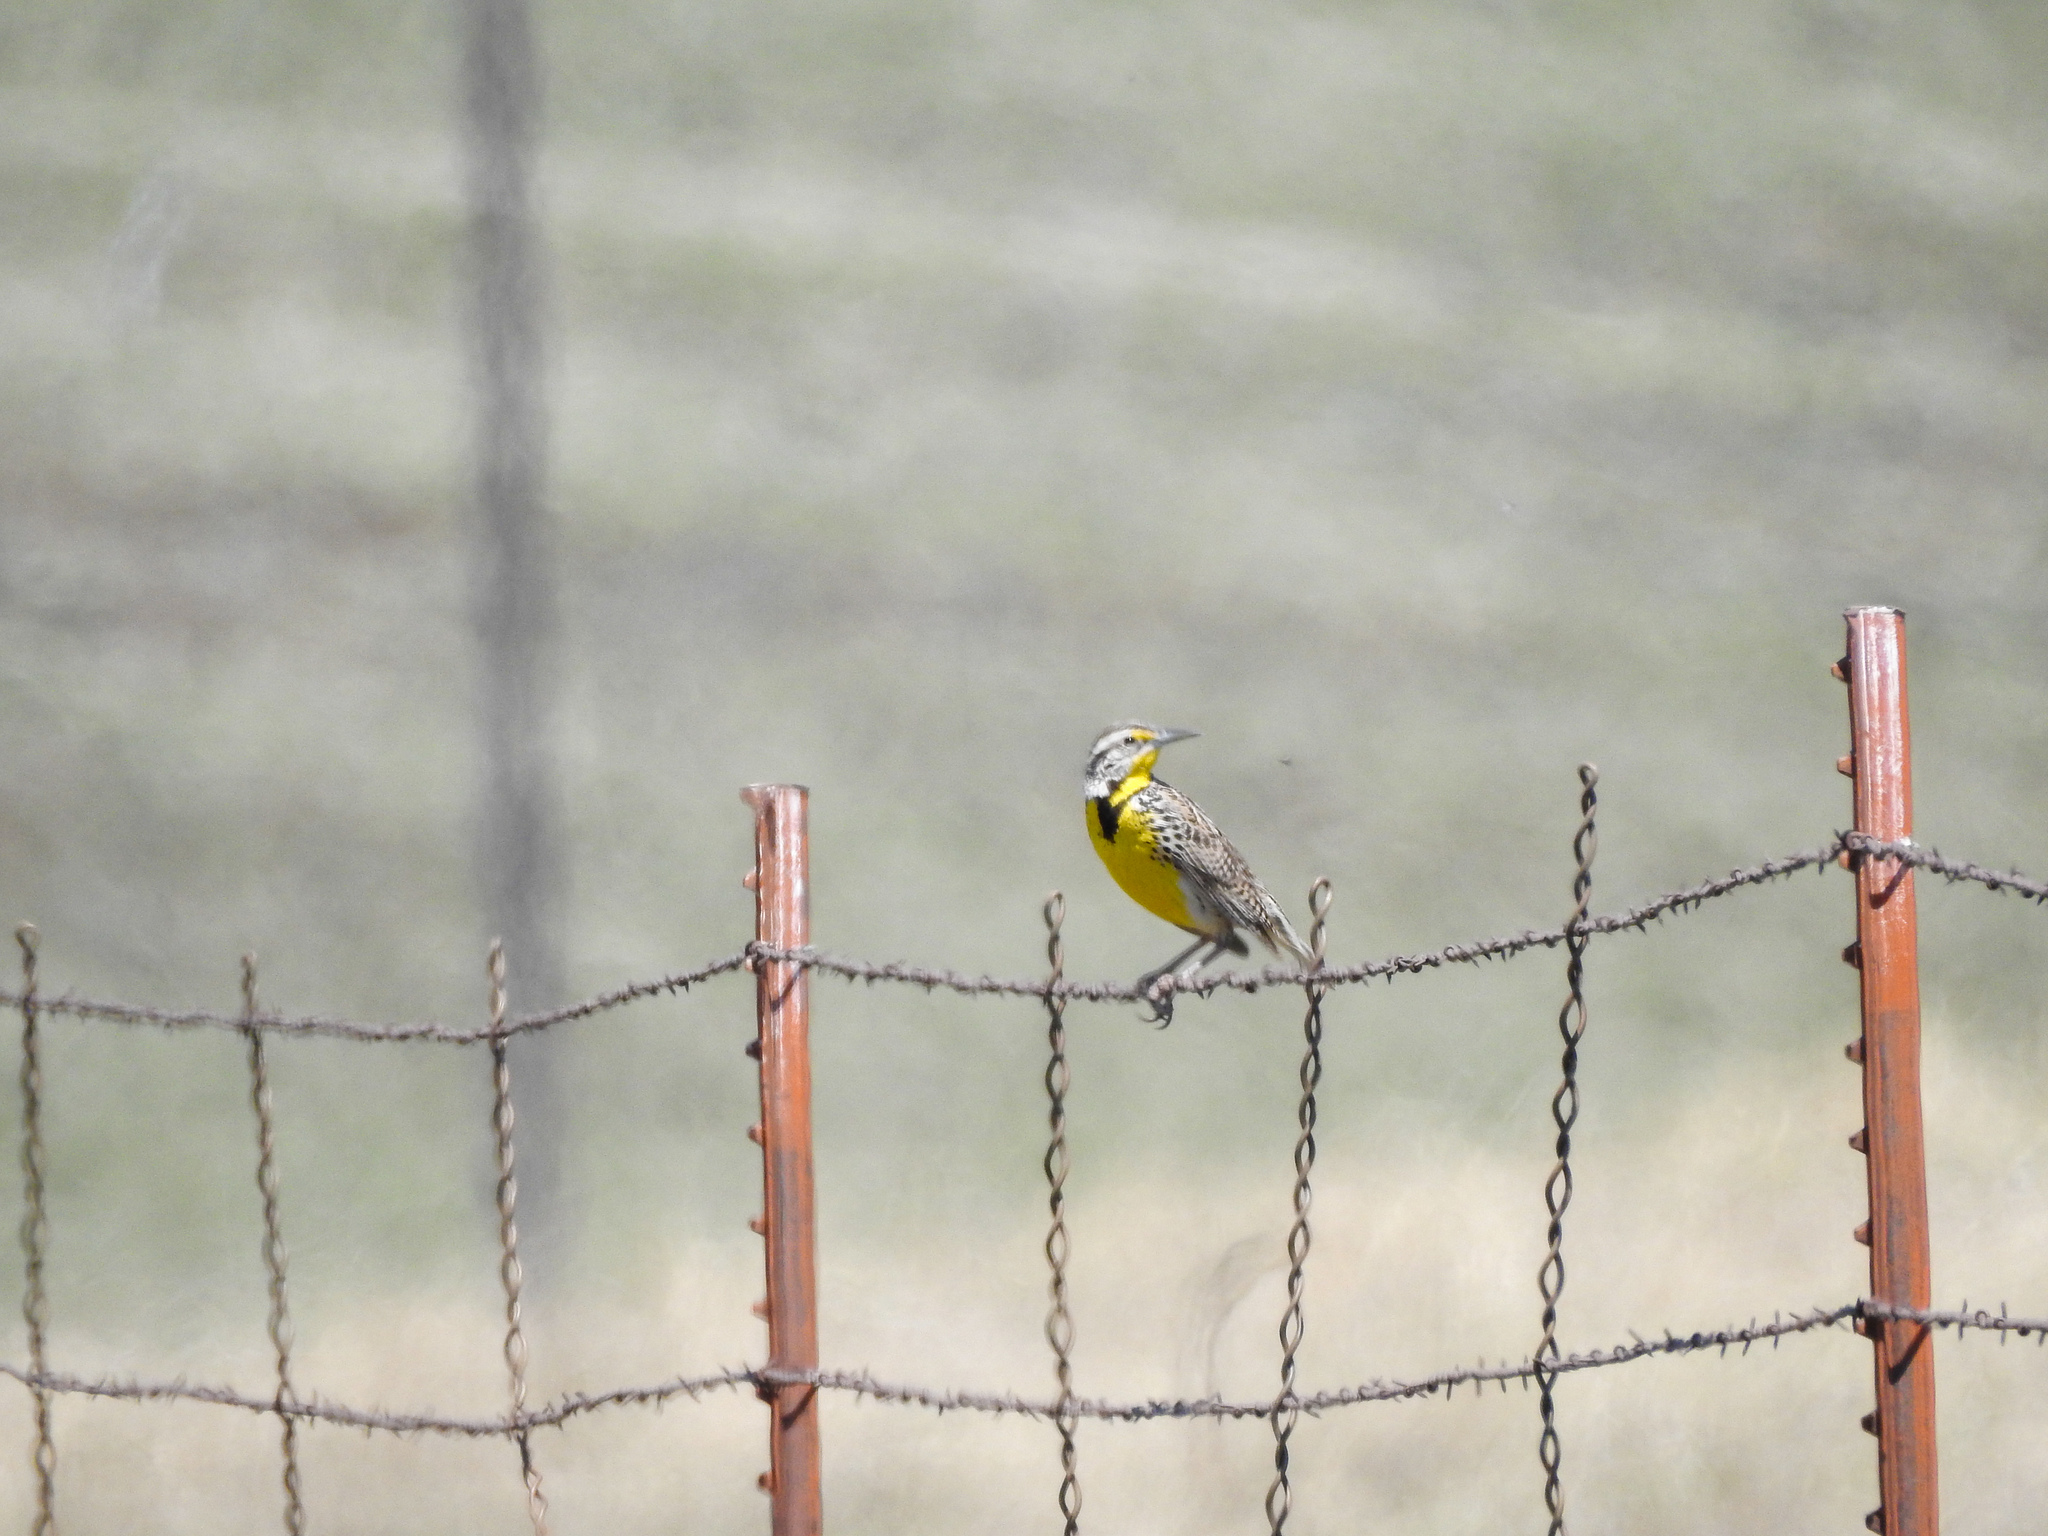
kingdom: Animalia
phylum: Chordata
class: Aves
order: Passeriformes
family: Icteridae
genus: Sturnella
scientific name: Sturnella neglecta
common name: Western meadowlark
